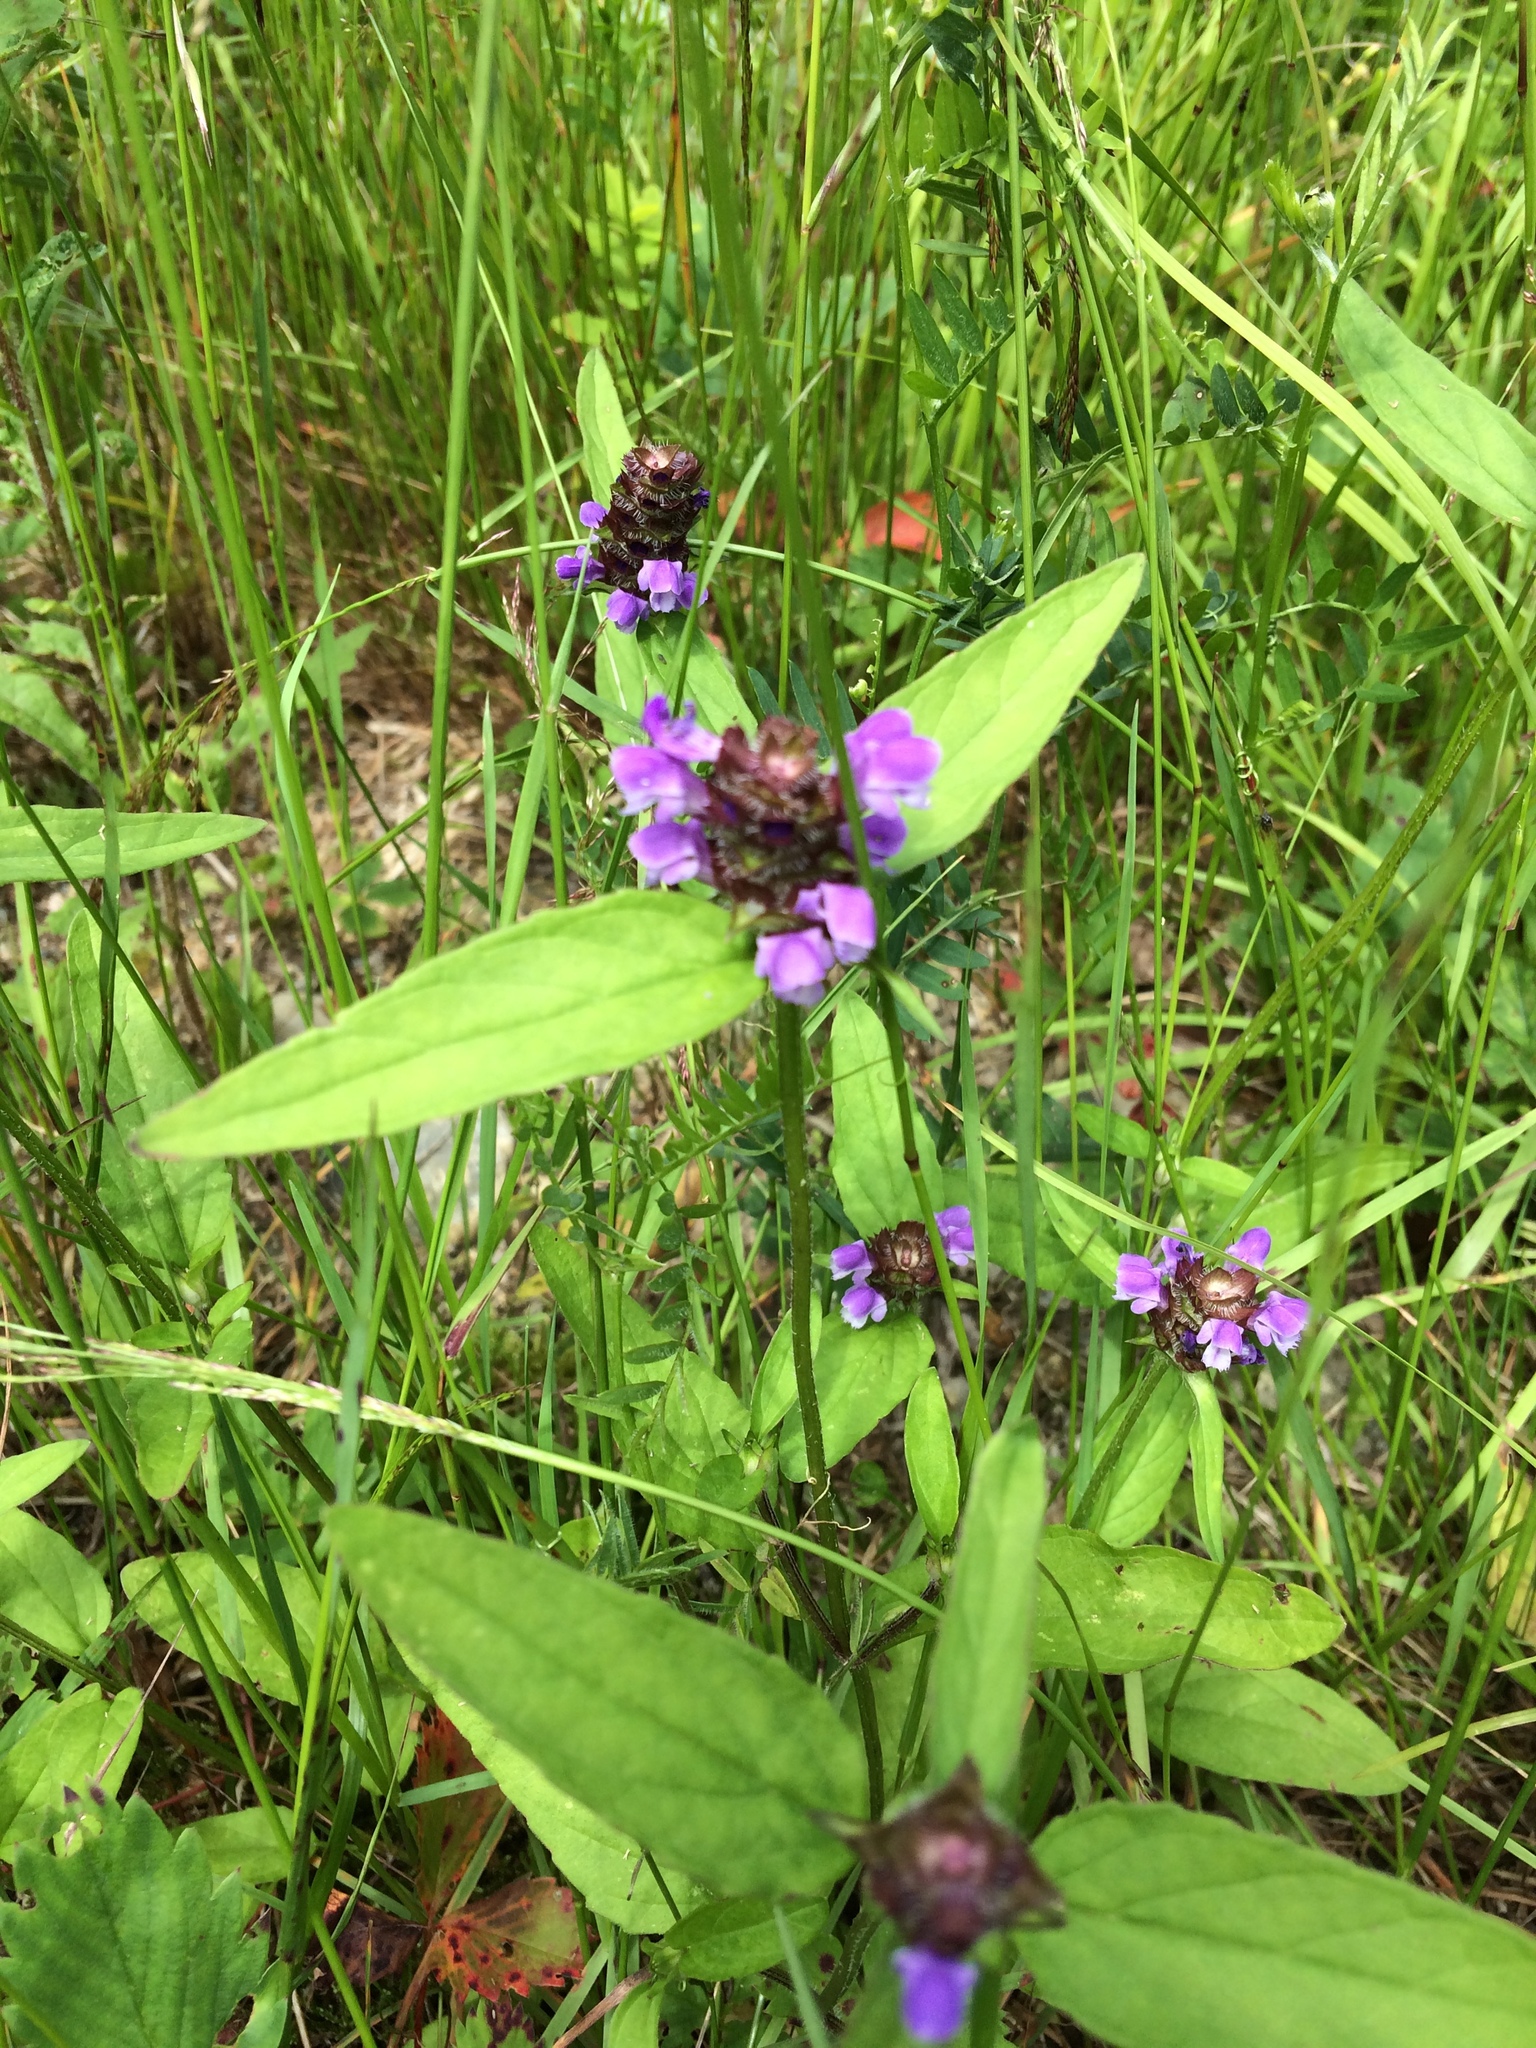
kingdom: Plantae
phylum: Tracheophyta
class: Magnoliopsida
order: Lamiales
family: Lamiaceae
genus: Prunella
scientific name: Prunella vulgaris
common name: Heal-all
